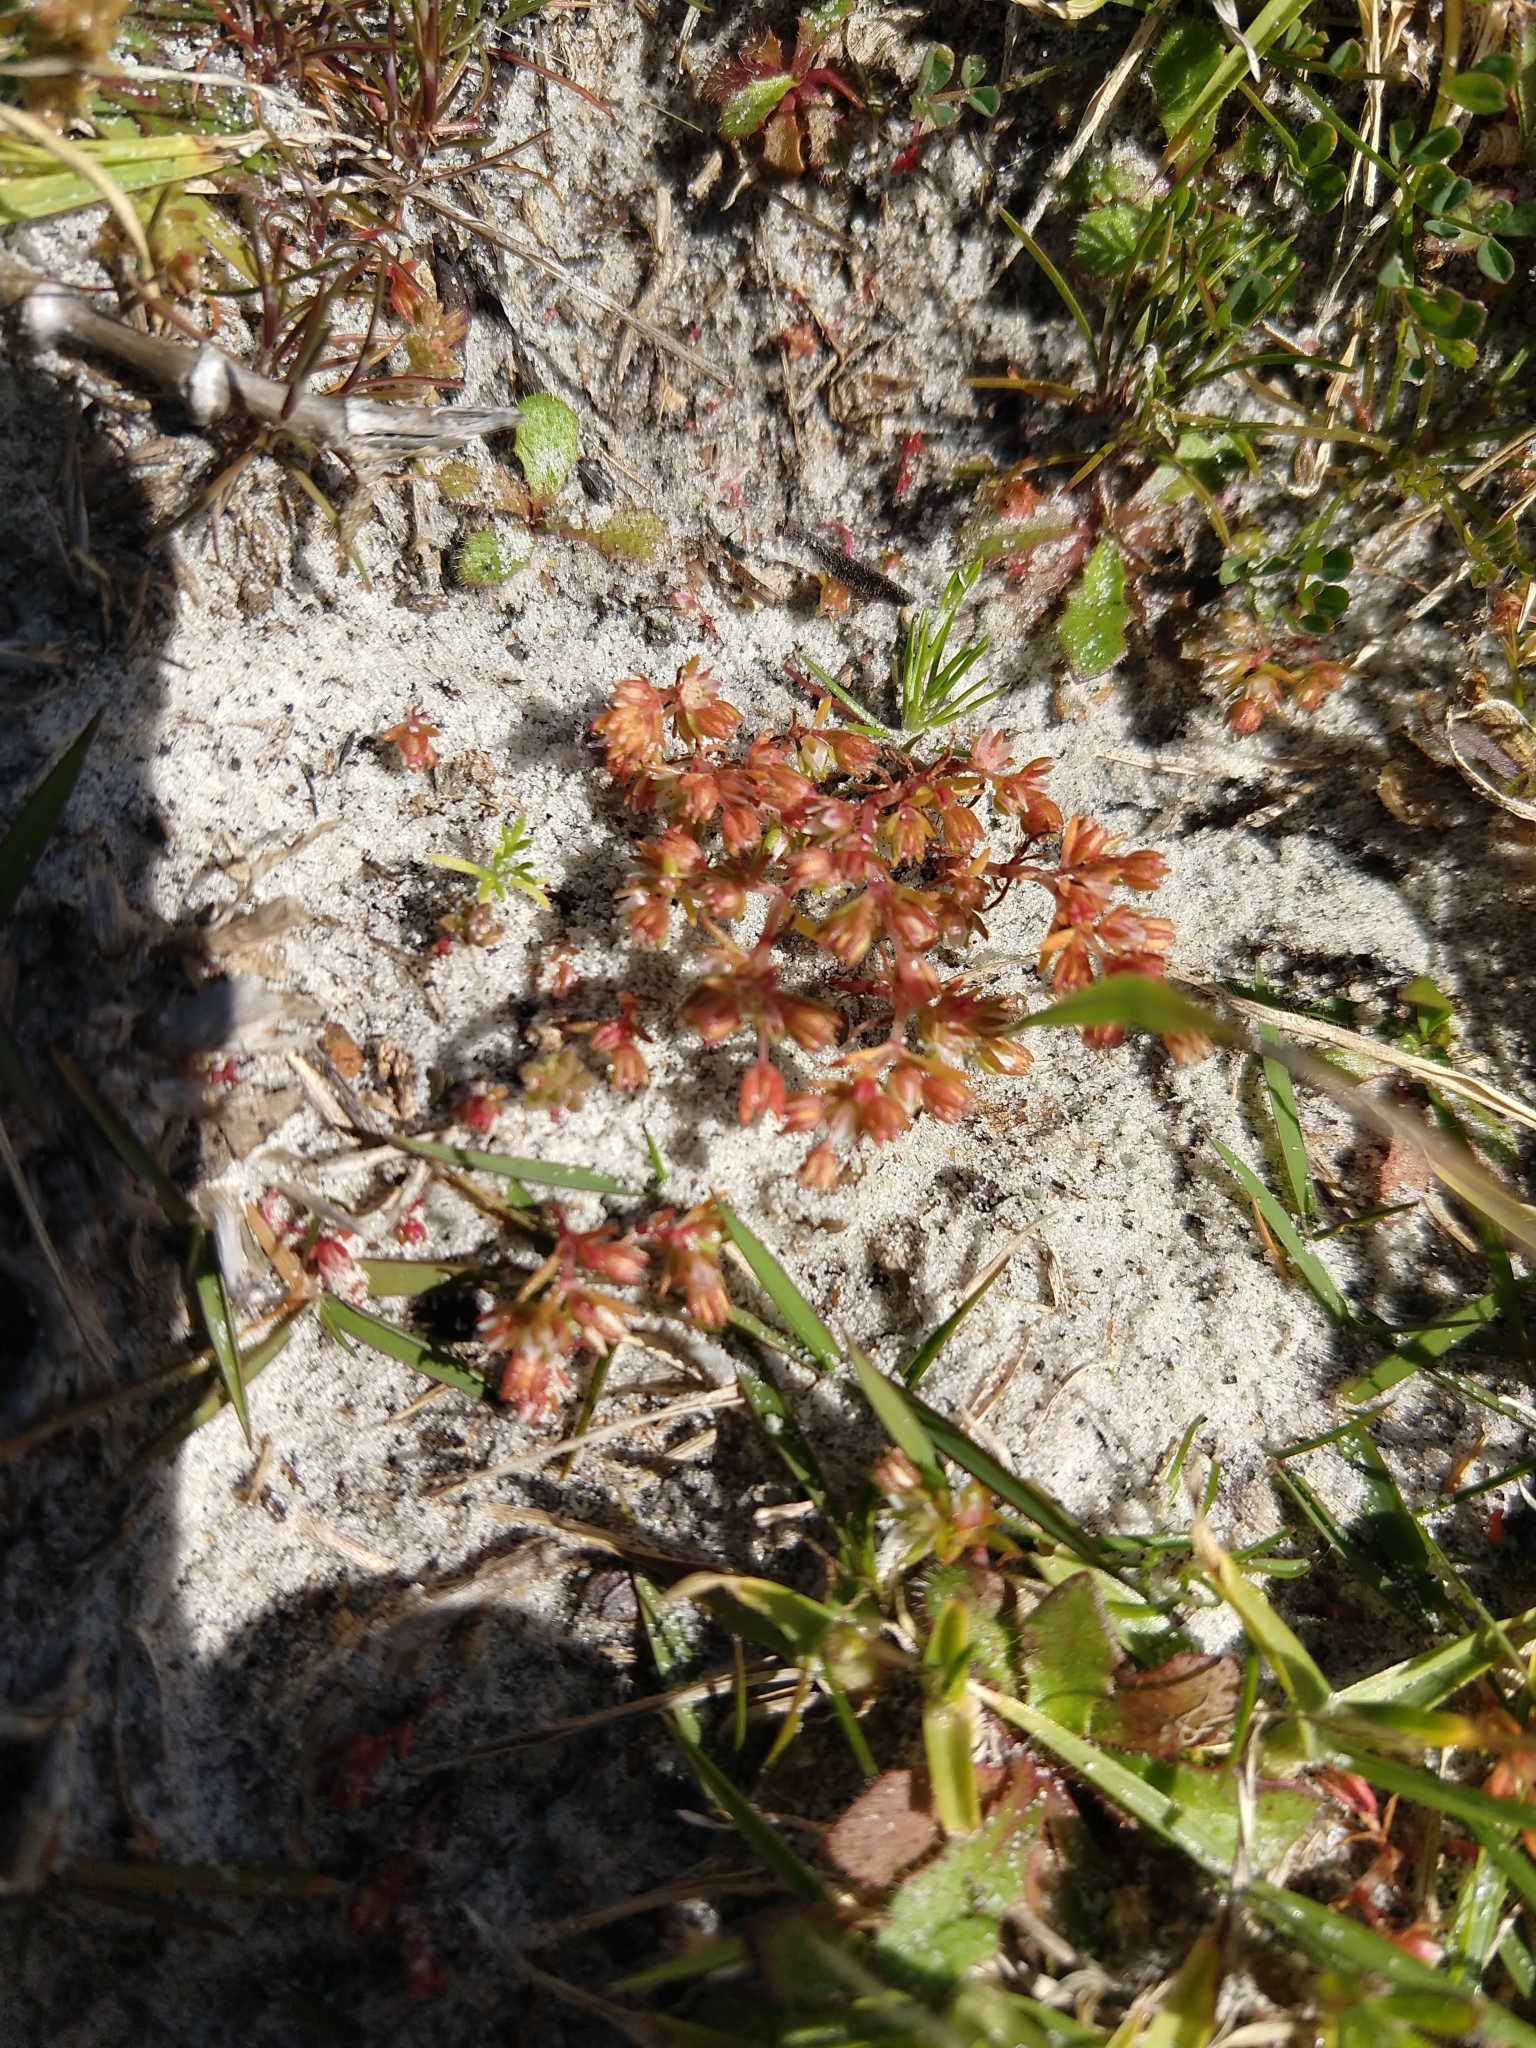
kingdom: Plantae
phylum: Tracheophyta
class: Magnoliopsida
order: Saxifragales
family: Crassulaceae
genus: Crassula
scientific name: Crassula decumbens
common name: Scilly pigmyweed
